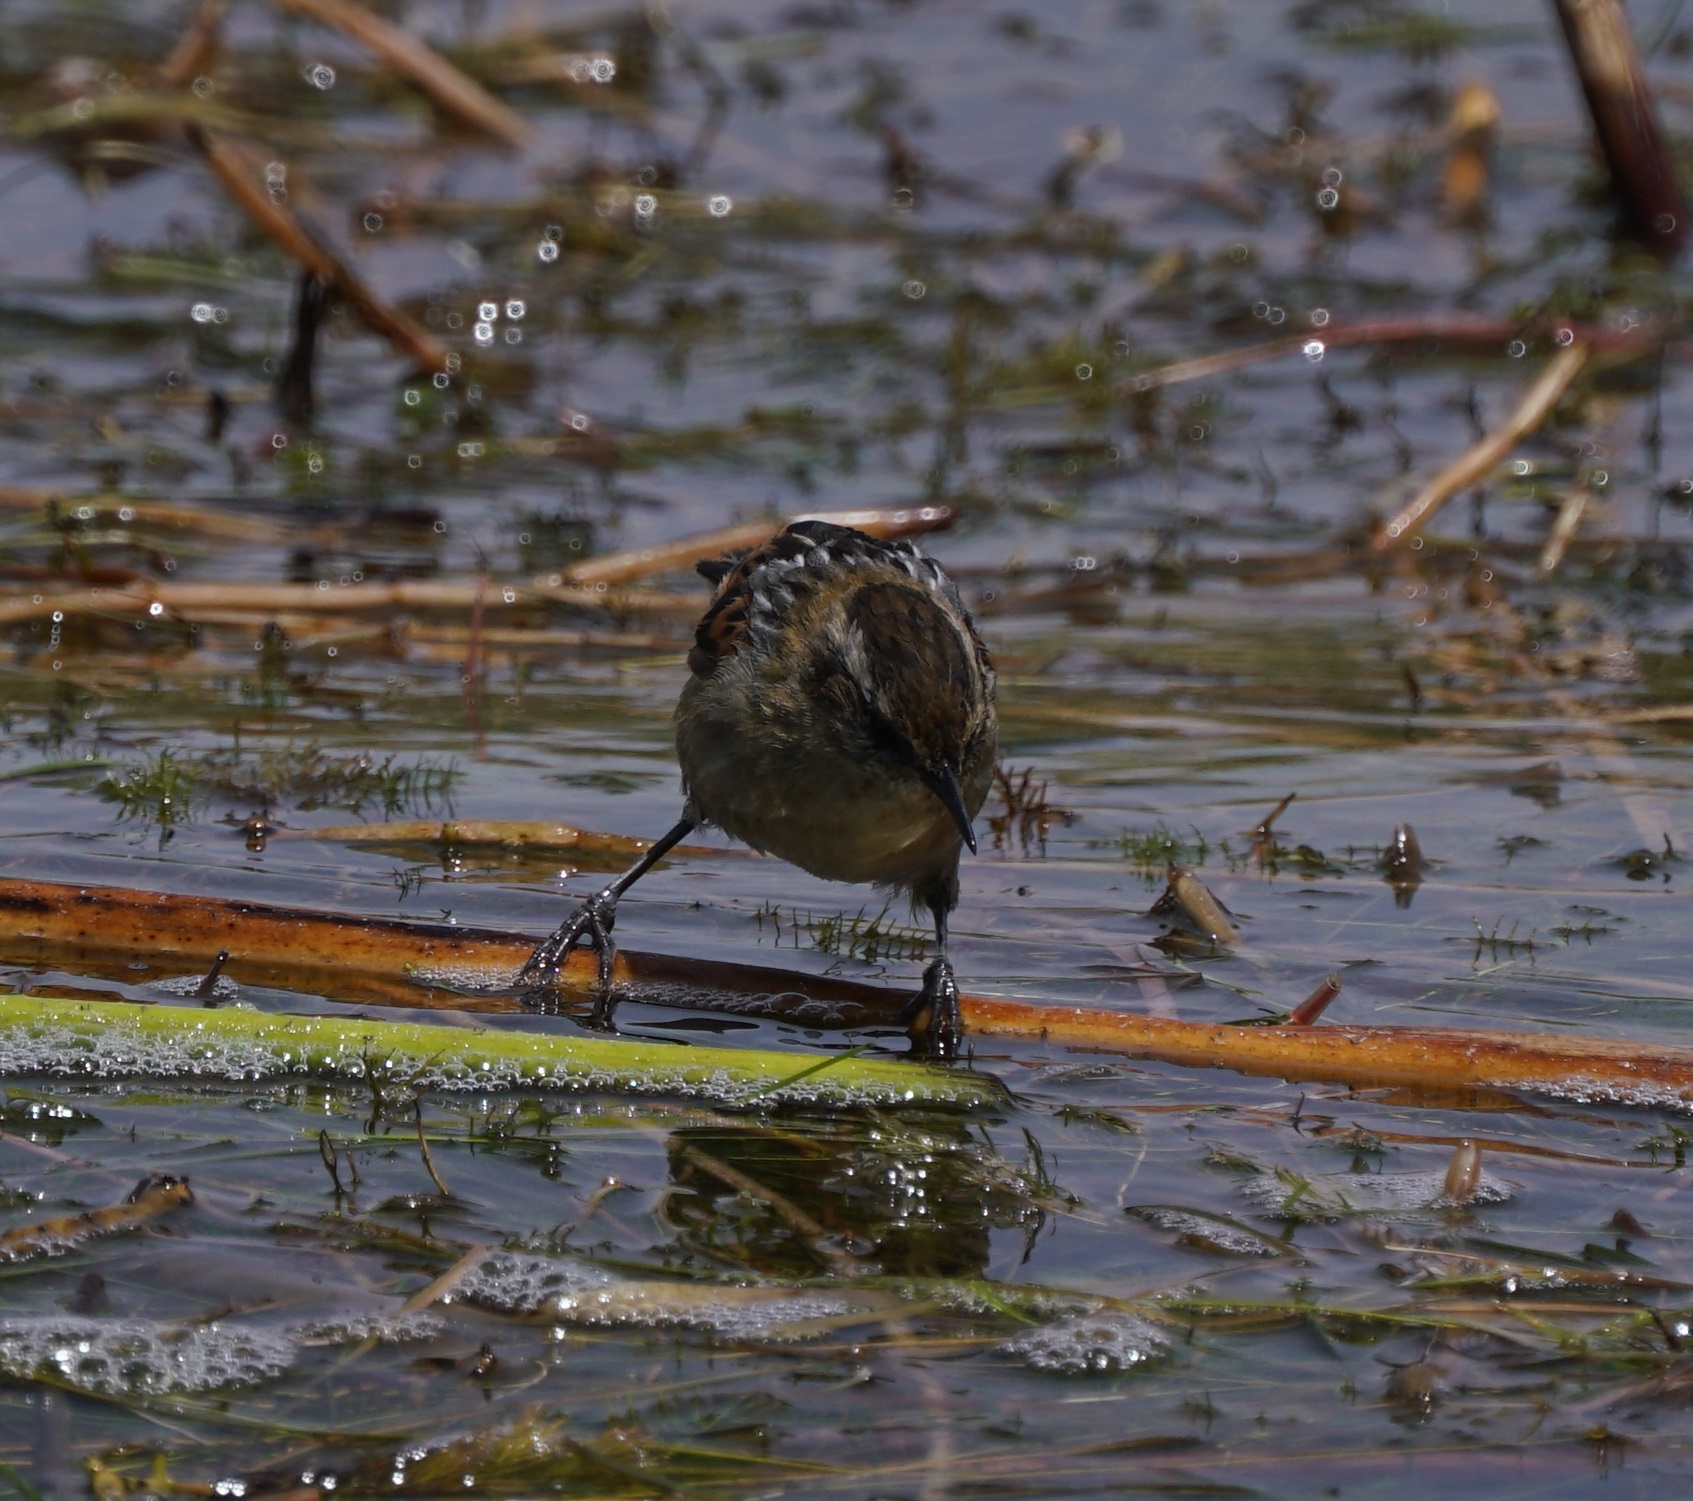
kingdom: Animalia
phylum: Chordata
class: Aves
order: Passeriformes
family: Furnariidae
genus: Phleocryptes
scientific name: Phleocryptes melanops
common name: Wren-like rushbird
